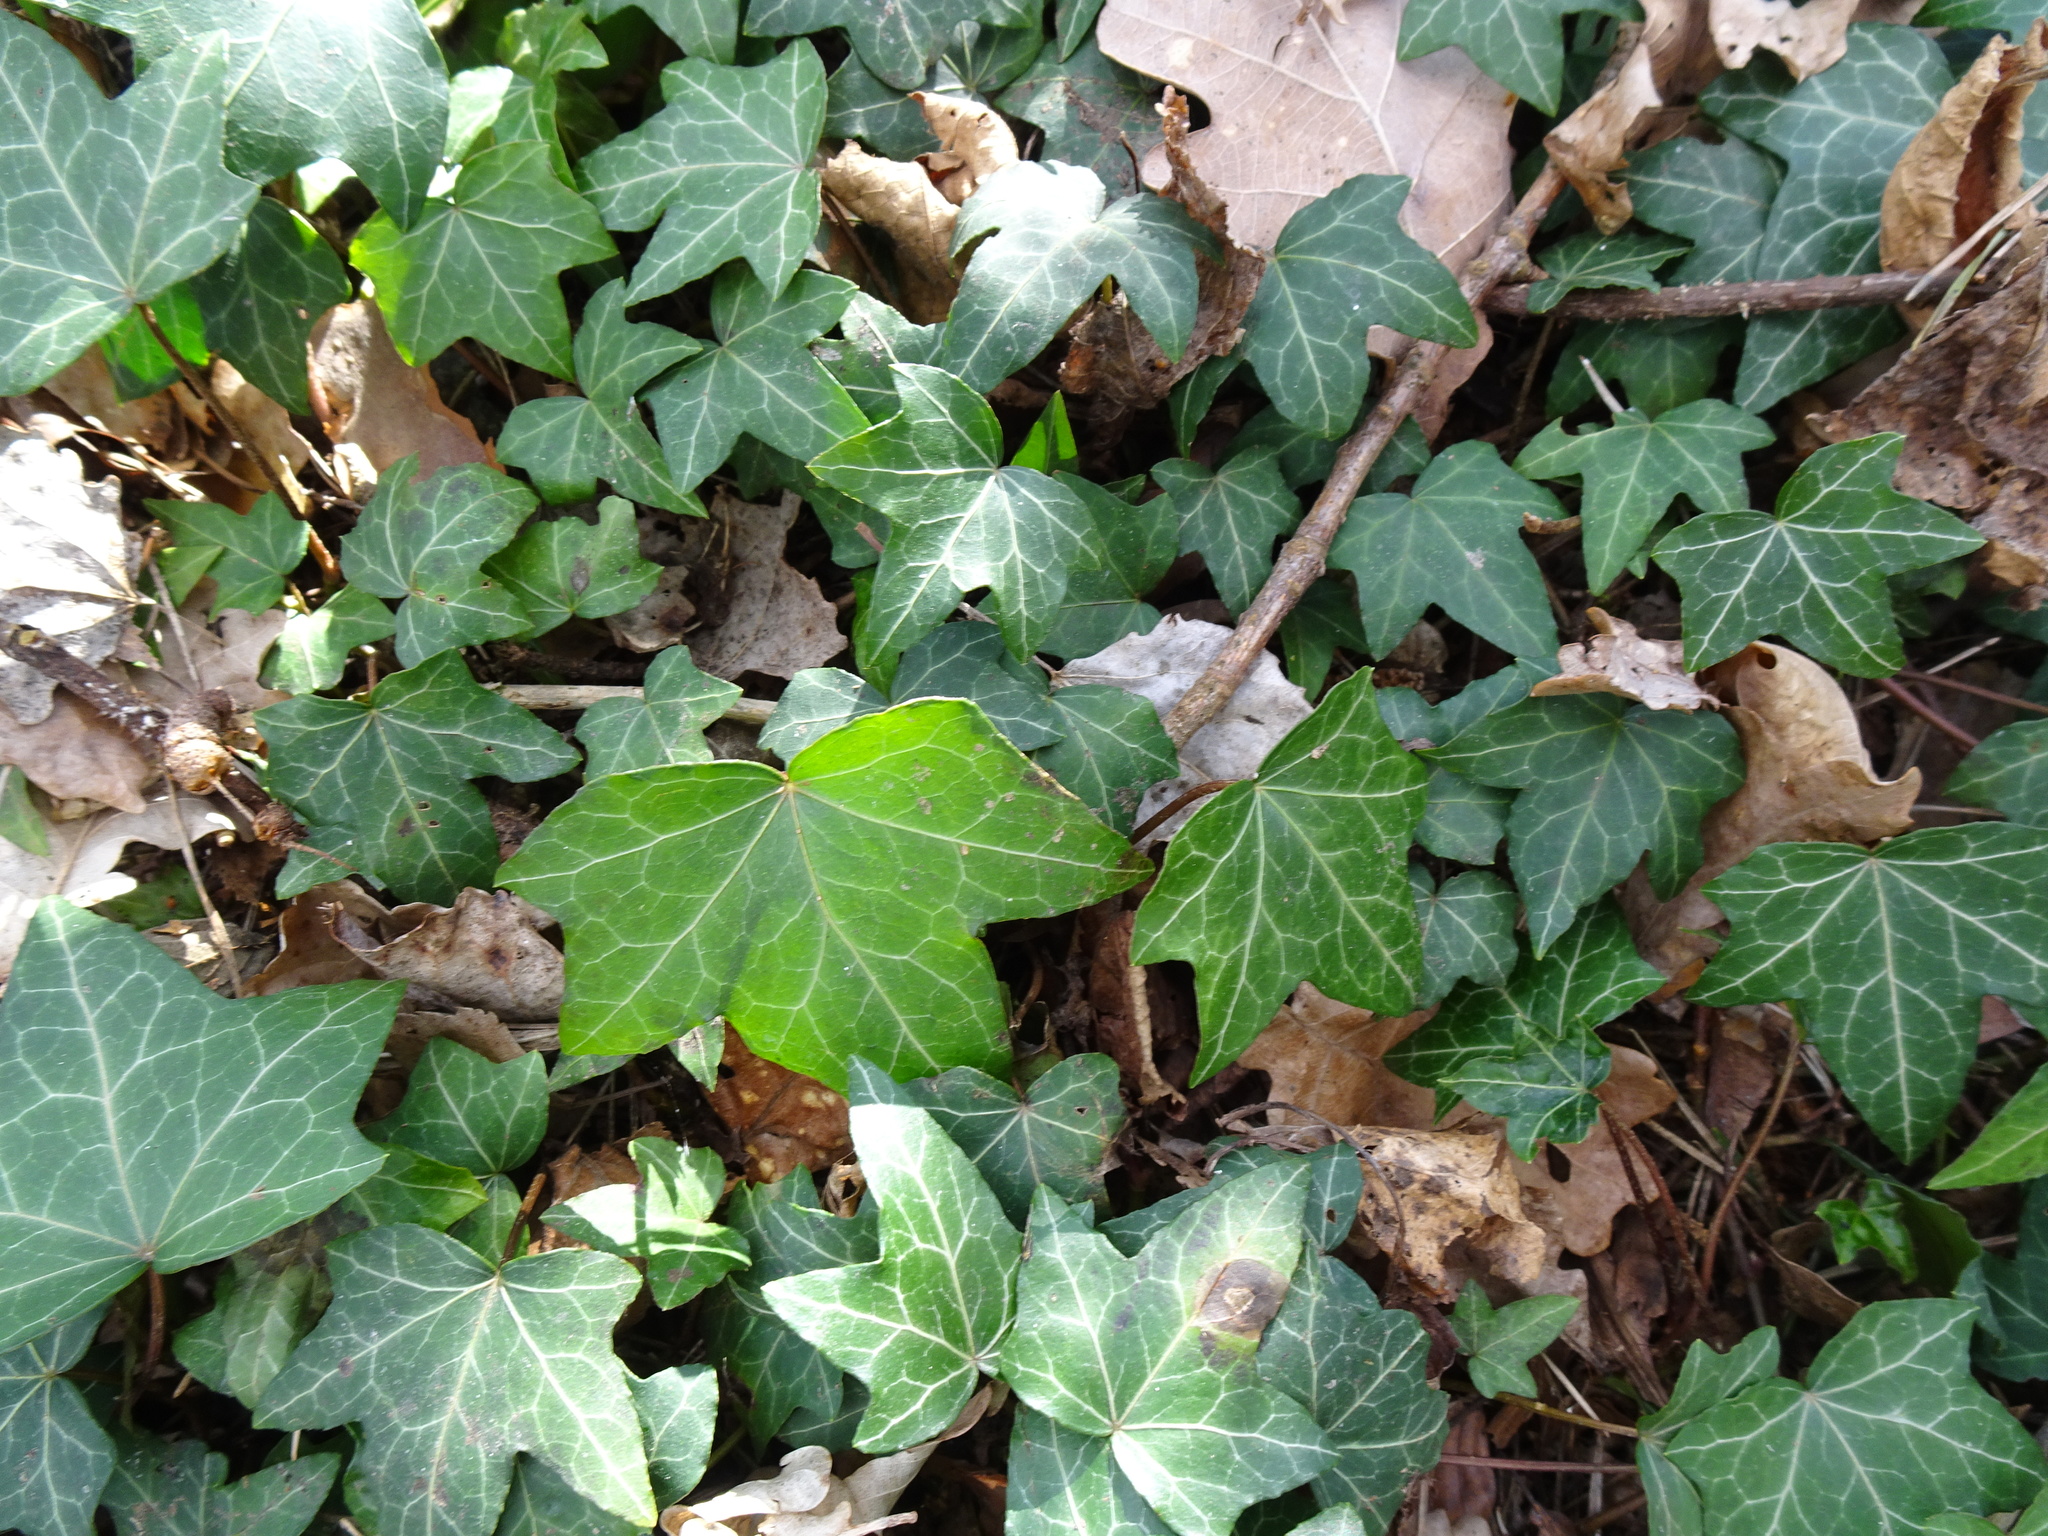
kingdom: Plantae
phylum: Tracheophyta
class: Magnoliopsida
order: Apiales
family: Araliaceae
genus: Hedera
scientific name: Hedera helix
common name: Ivy
